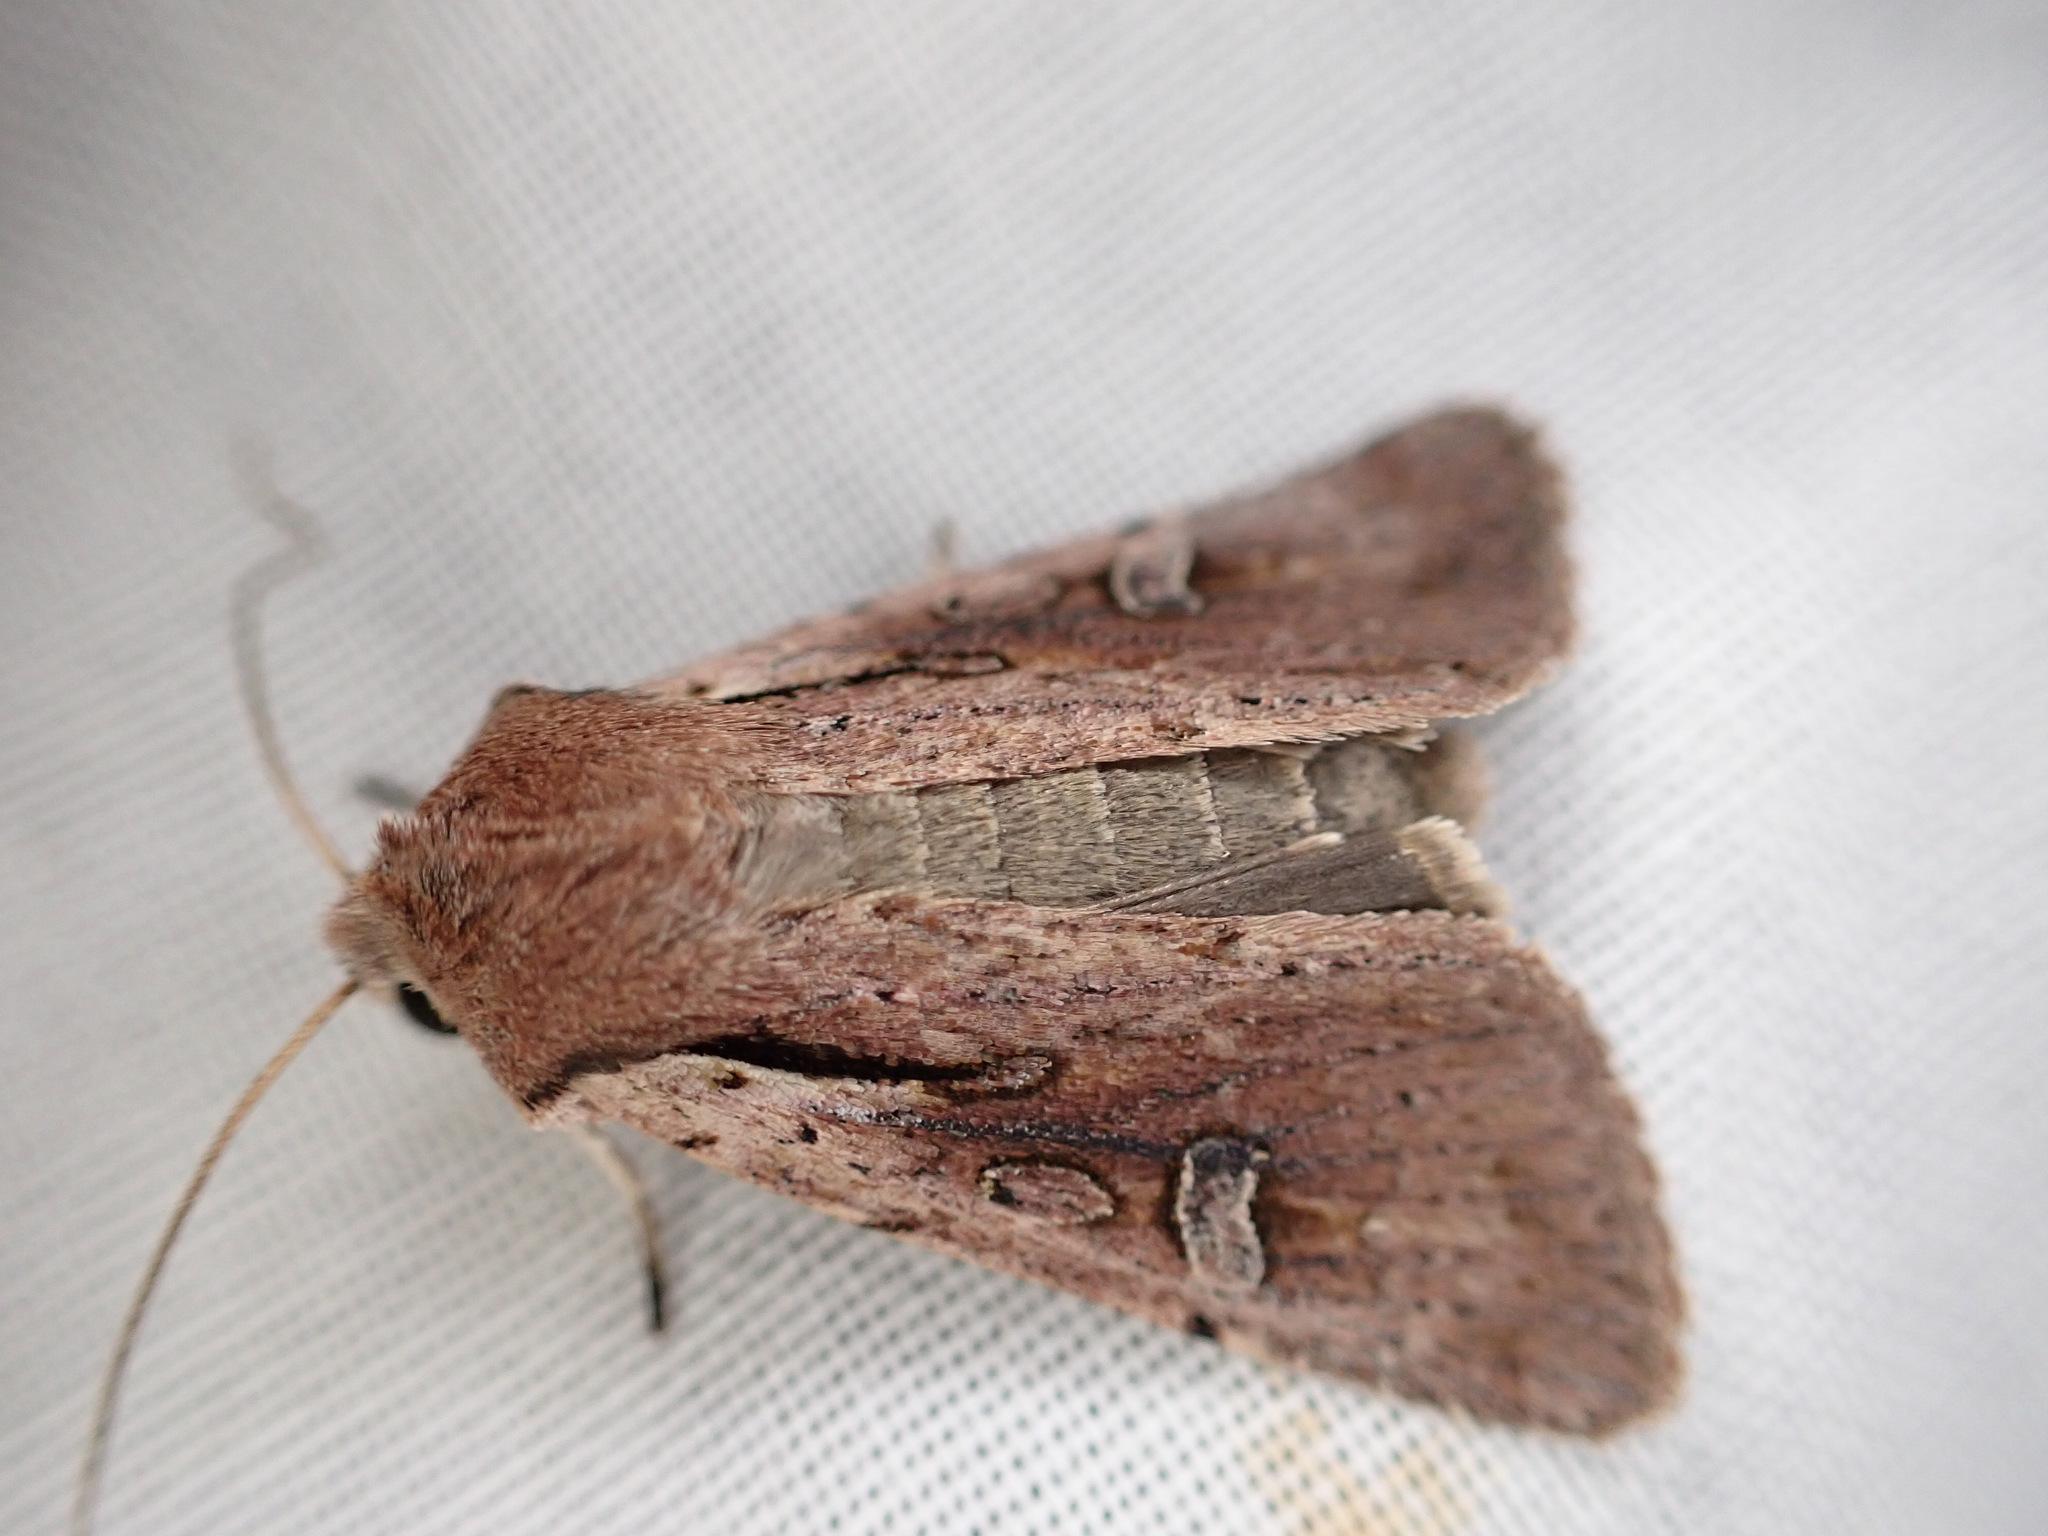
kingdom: Animalia
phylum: Arthropoda
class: Insecta
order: Lepidoptera
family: Noctuidae
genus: Ichneutica
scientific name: Ichneutica atristriga
